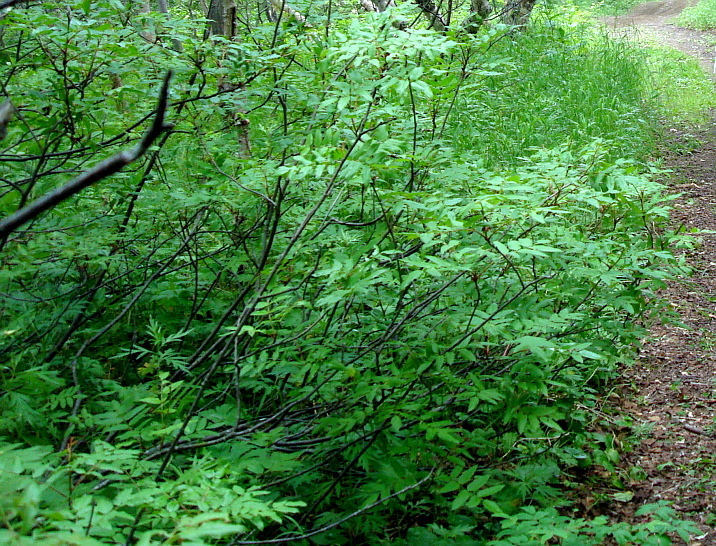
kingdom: Plantae
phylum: Tracheophyta
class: Magnoliopsida
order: Rosales
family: Rosaceae
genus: Sorbus
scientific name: Sorbus sambucifolia
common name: Siberian mountain-ash
